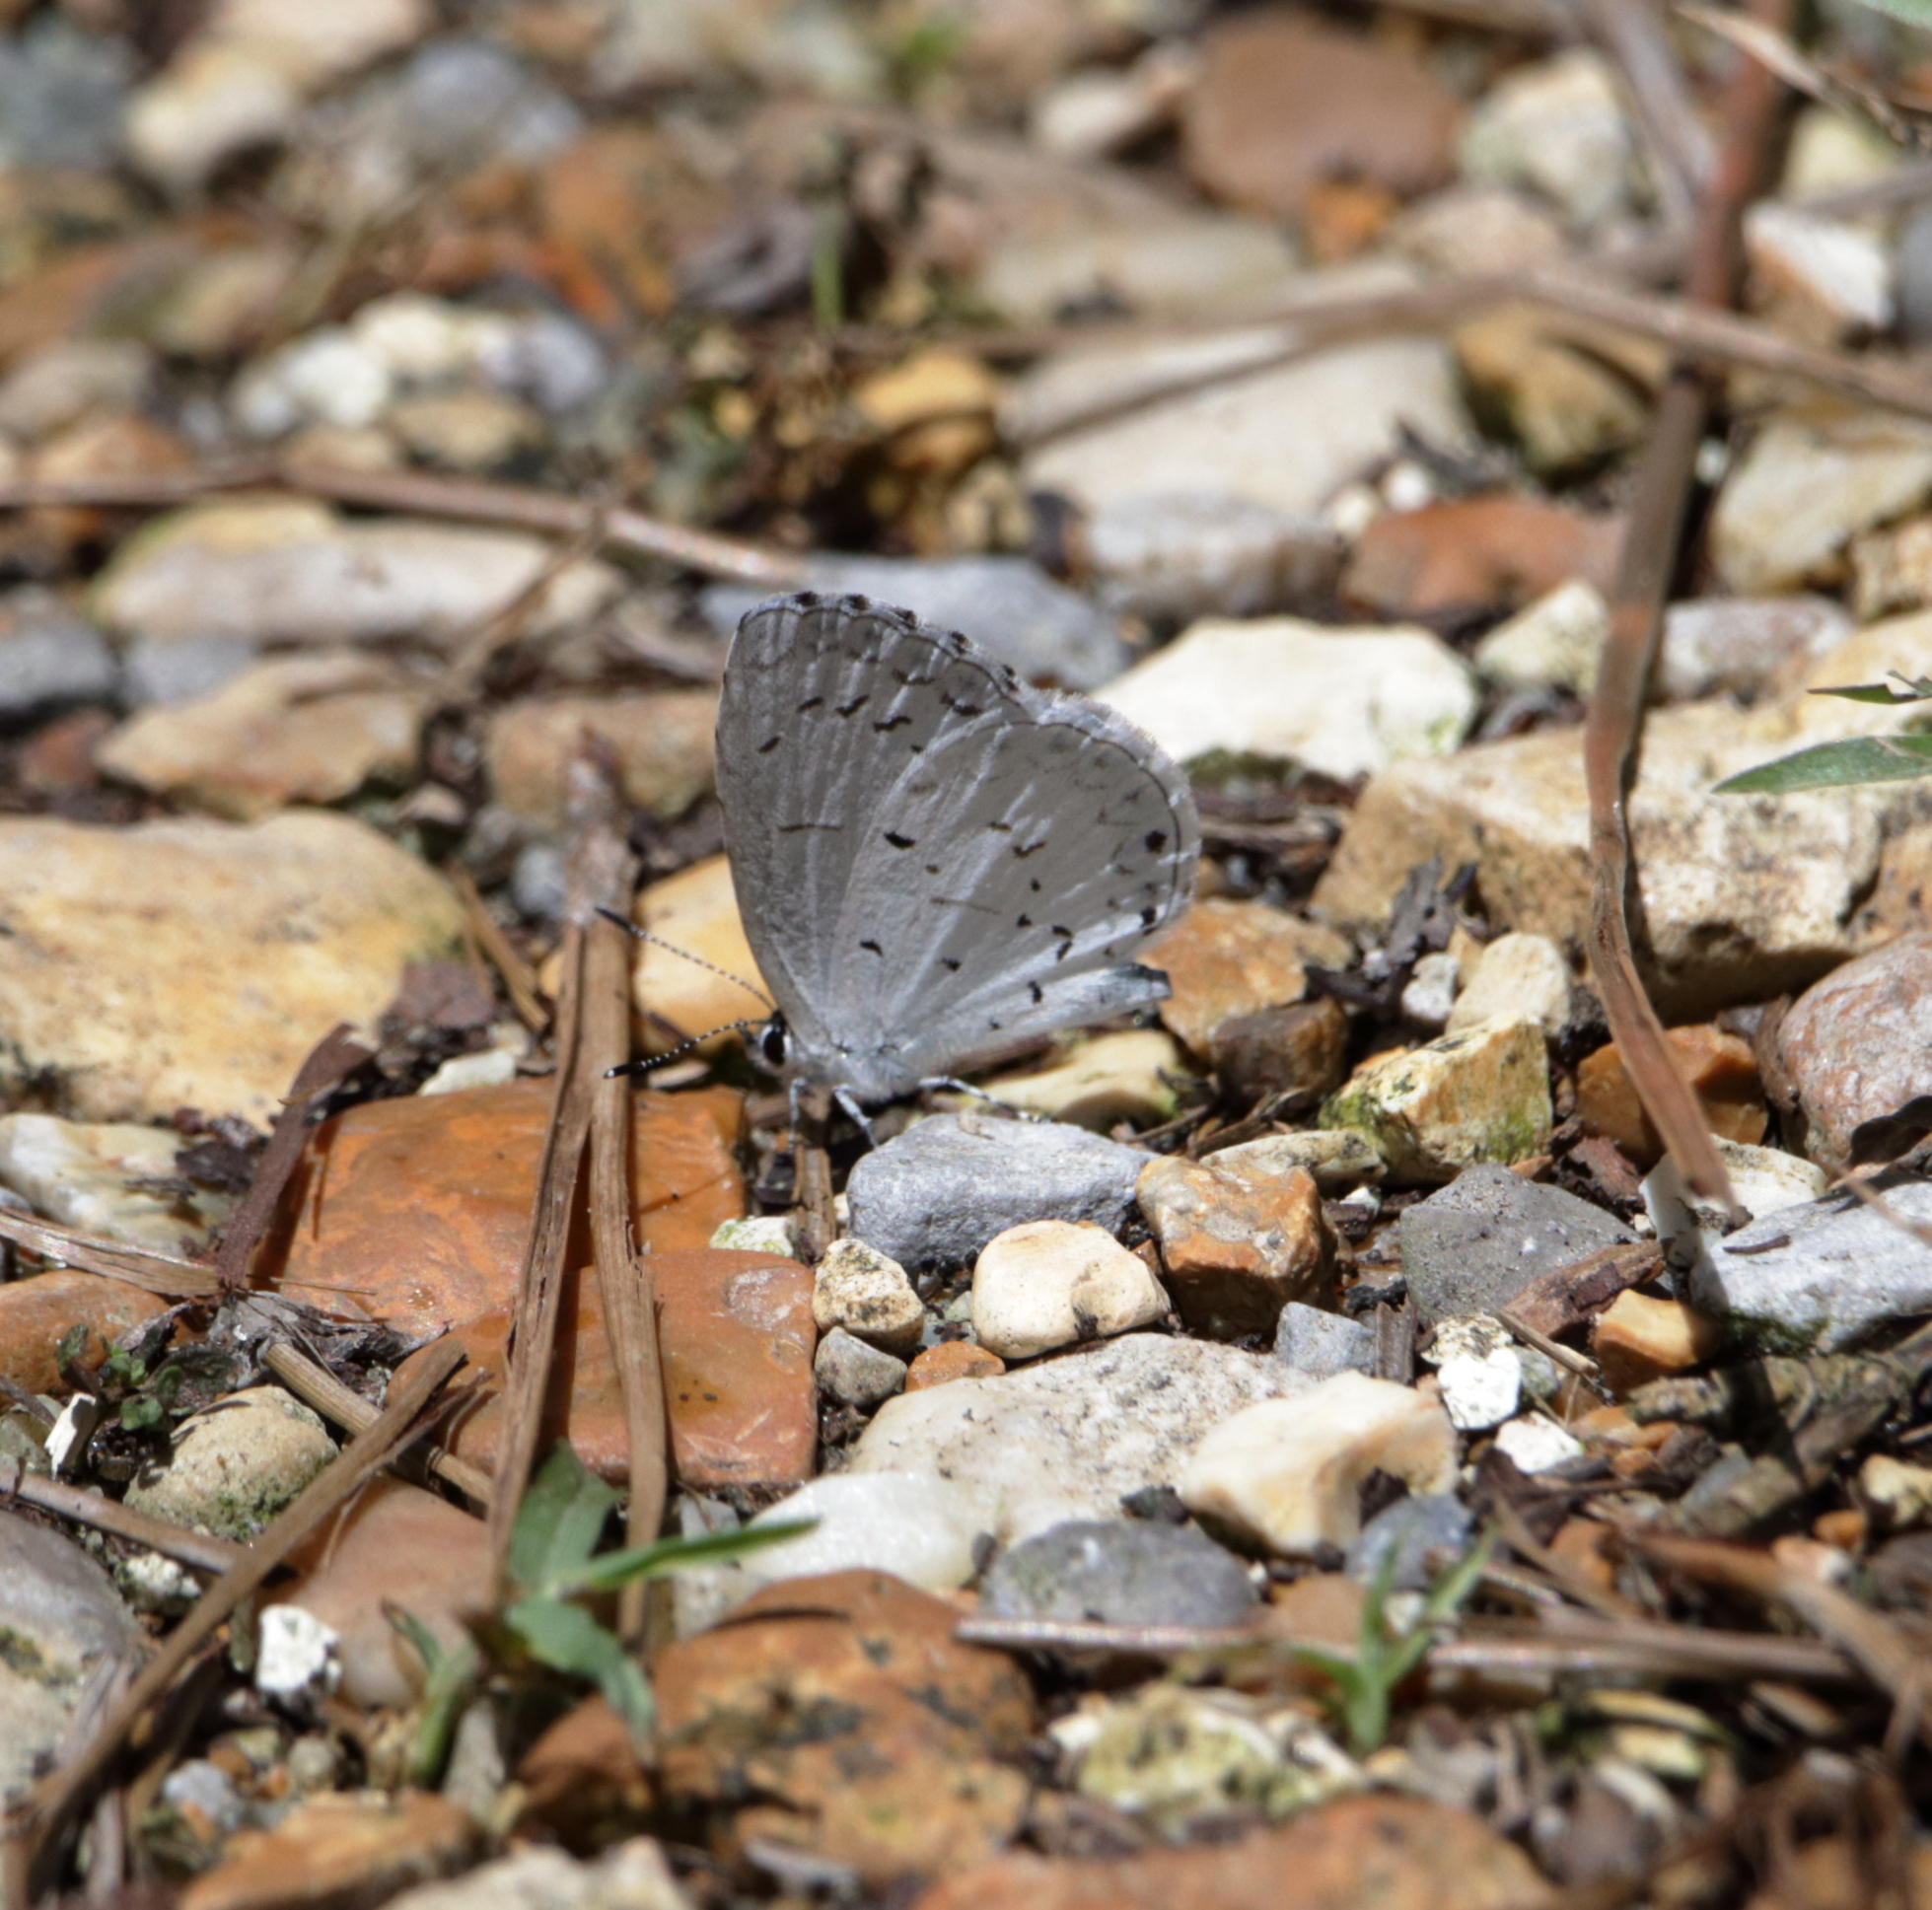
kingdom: Animalia
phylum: Arthropoda
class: Insecta
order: Lepidoptera
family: Lycaenidae
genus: Cyaniris
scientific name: Cyaniris neglecta
